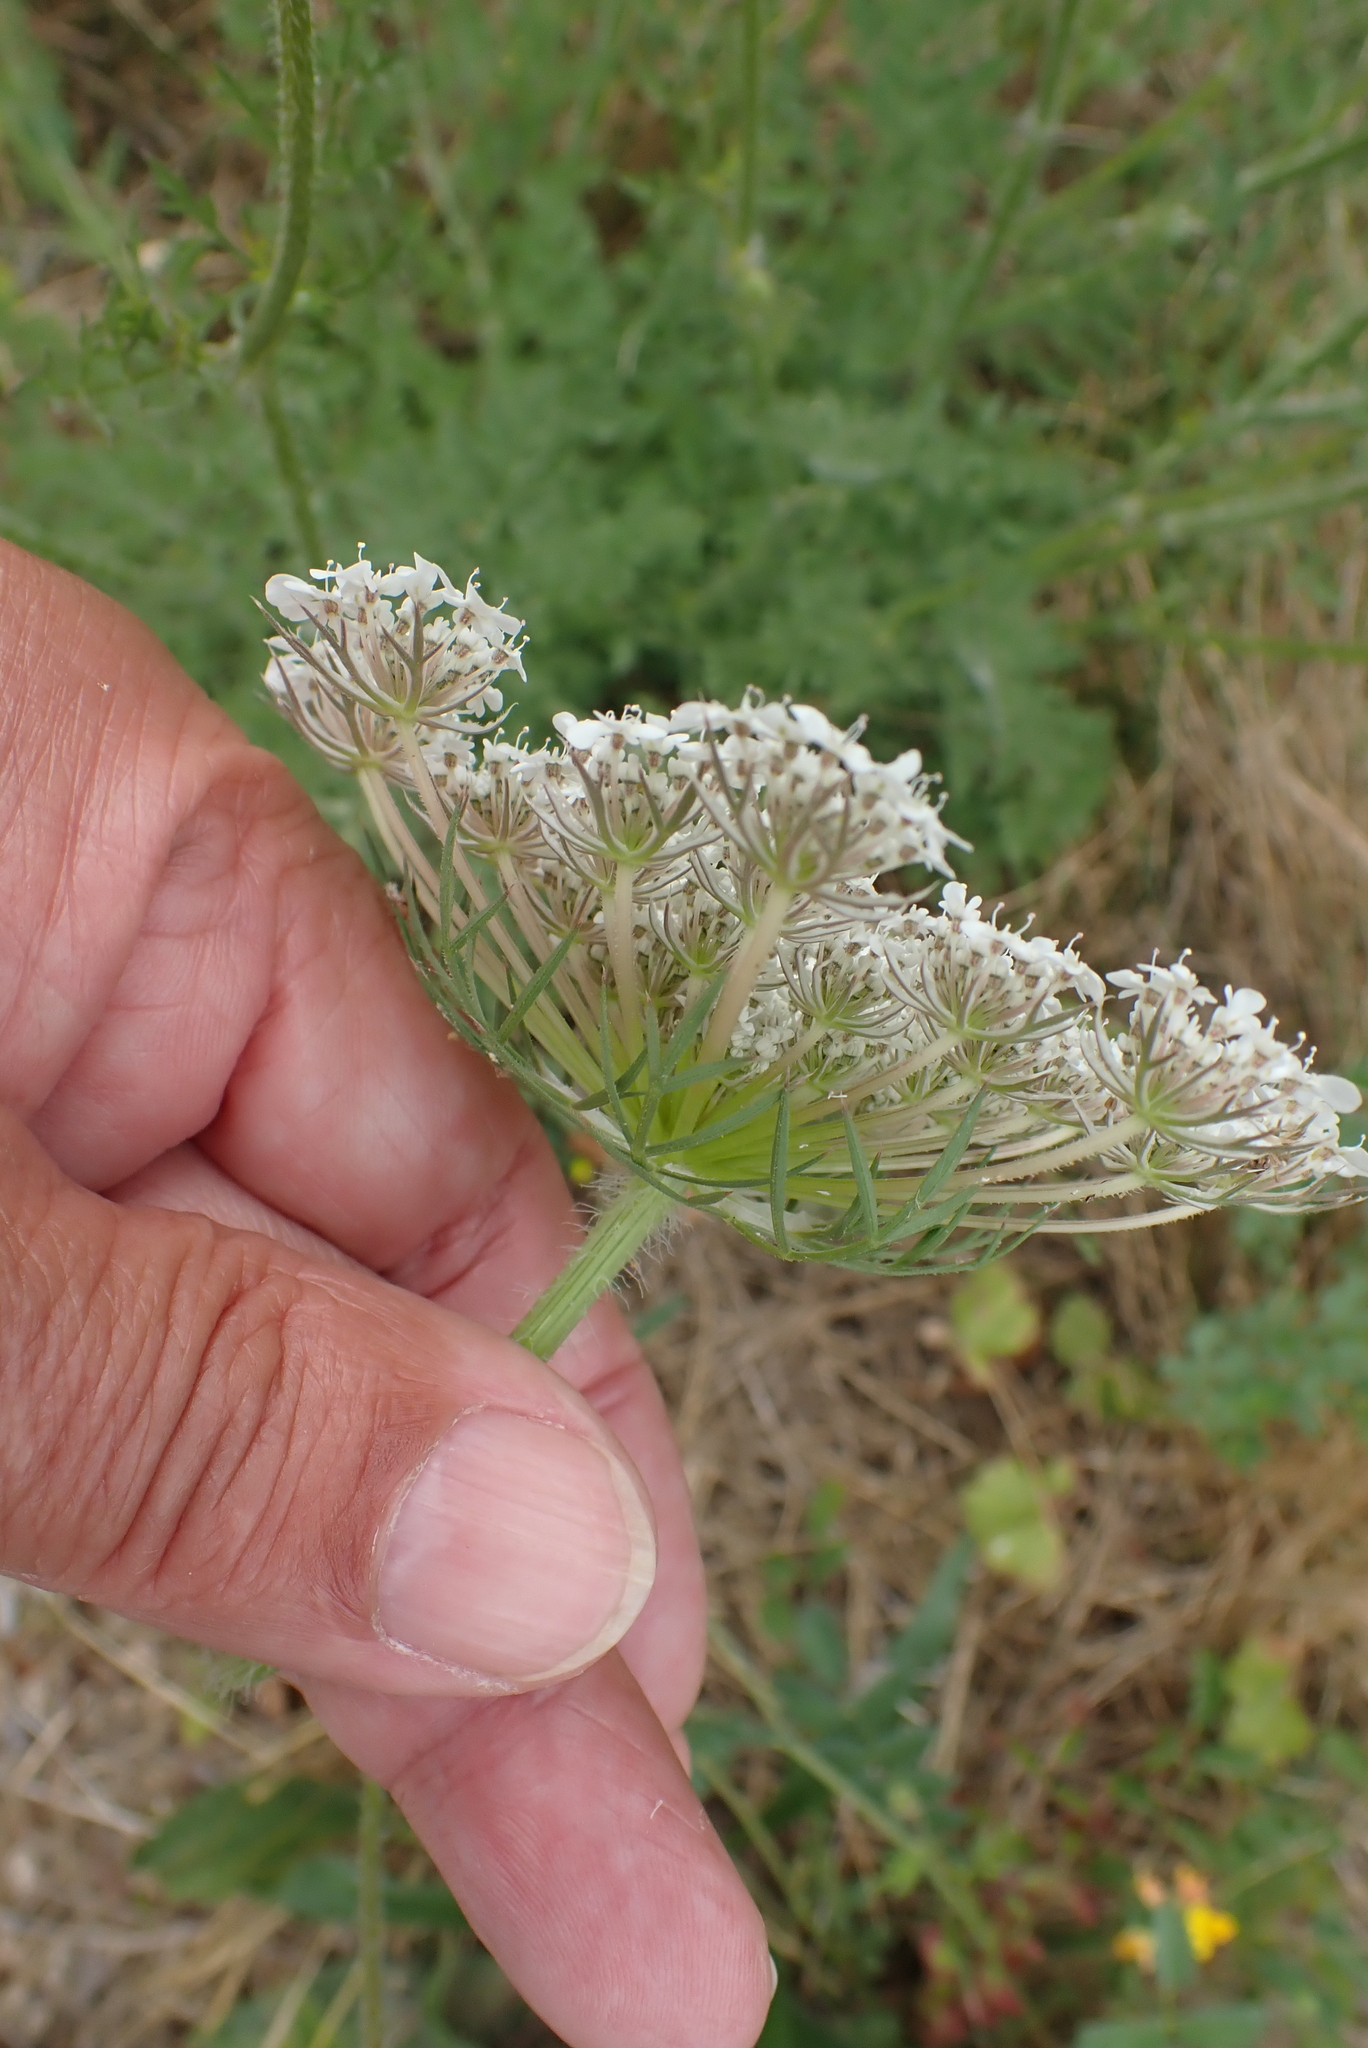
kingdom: Plantae
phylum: Tracheophyta
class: Magnoliopsida
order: Apiales
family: Apiaceae
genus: Daucus
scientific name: Daucus carota
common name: Wild carrot
